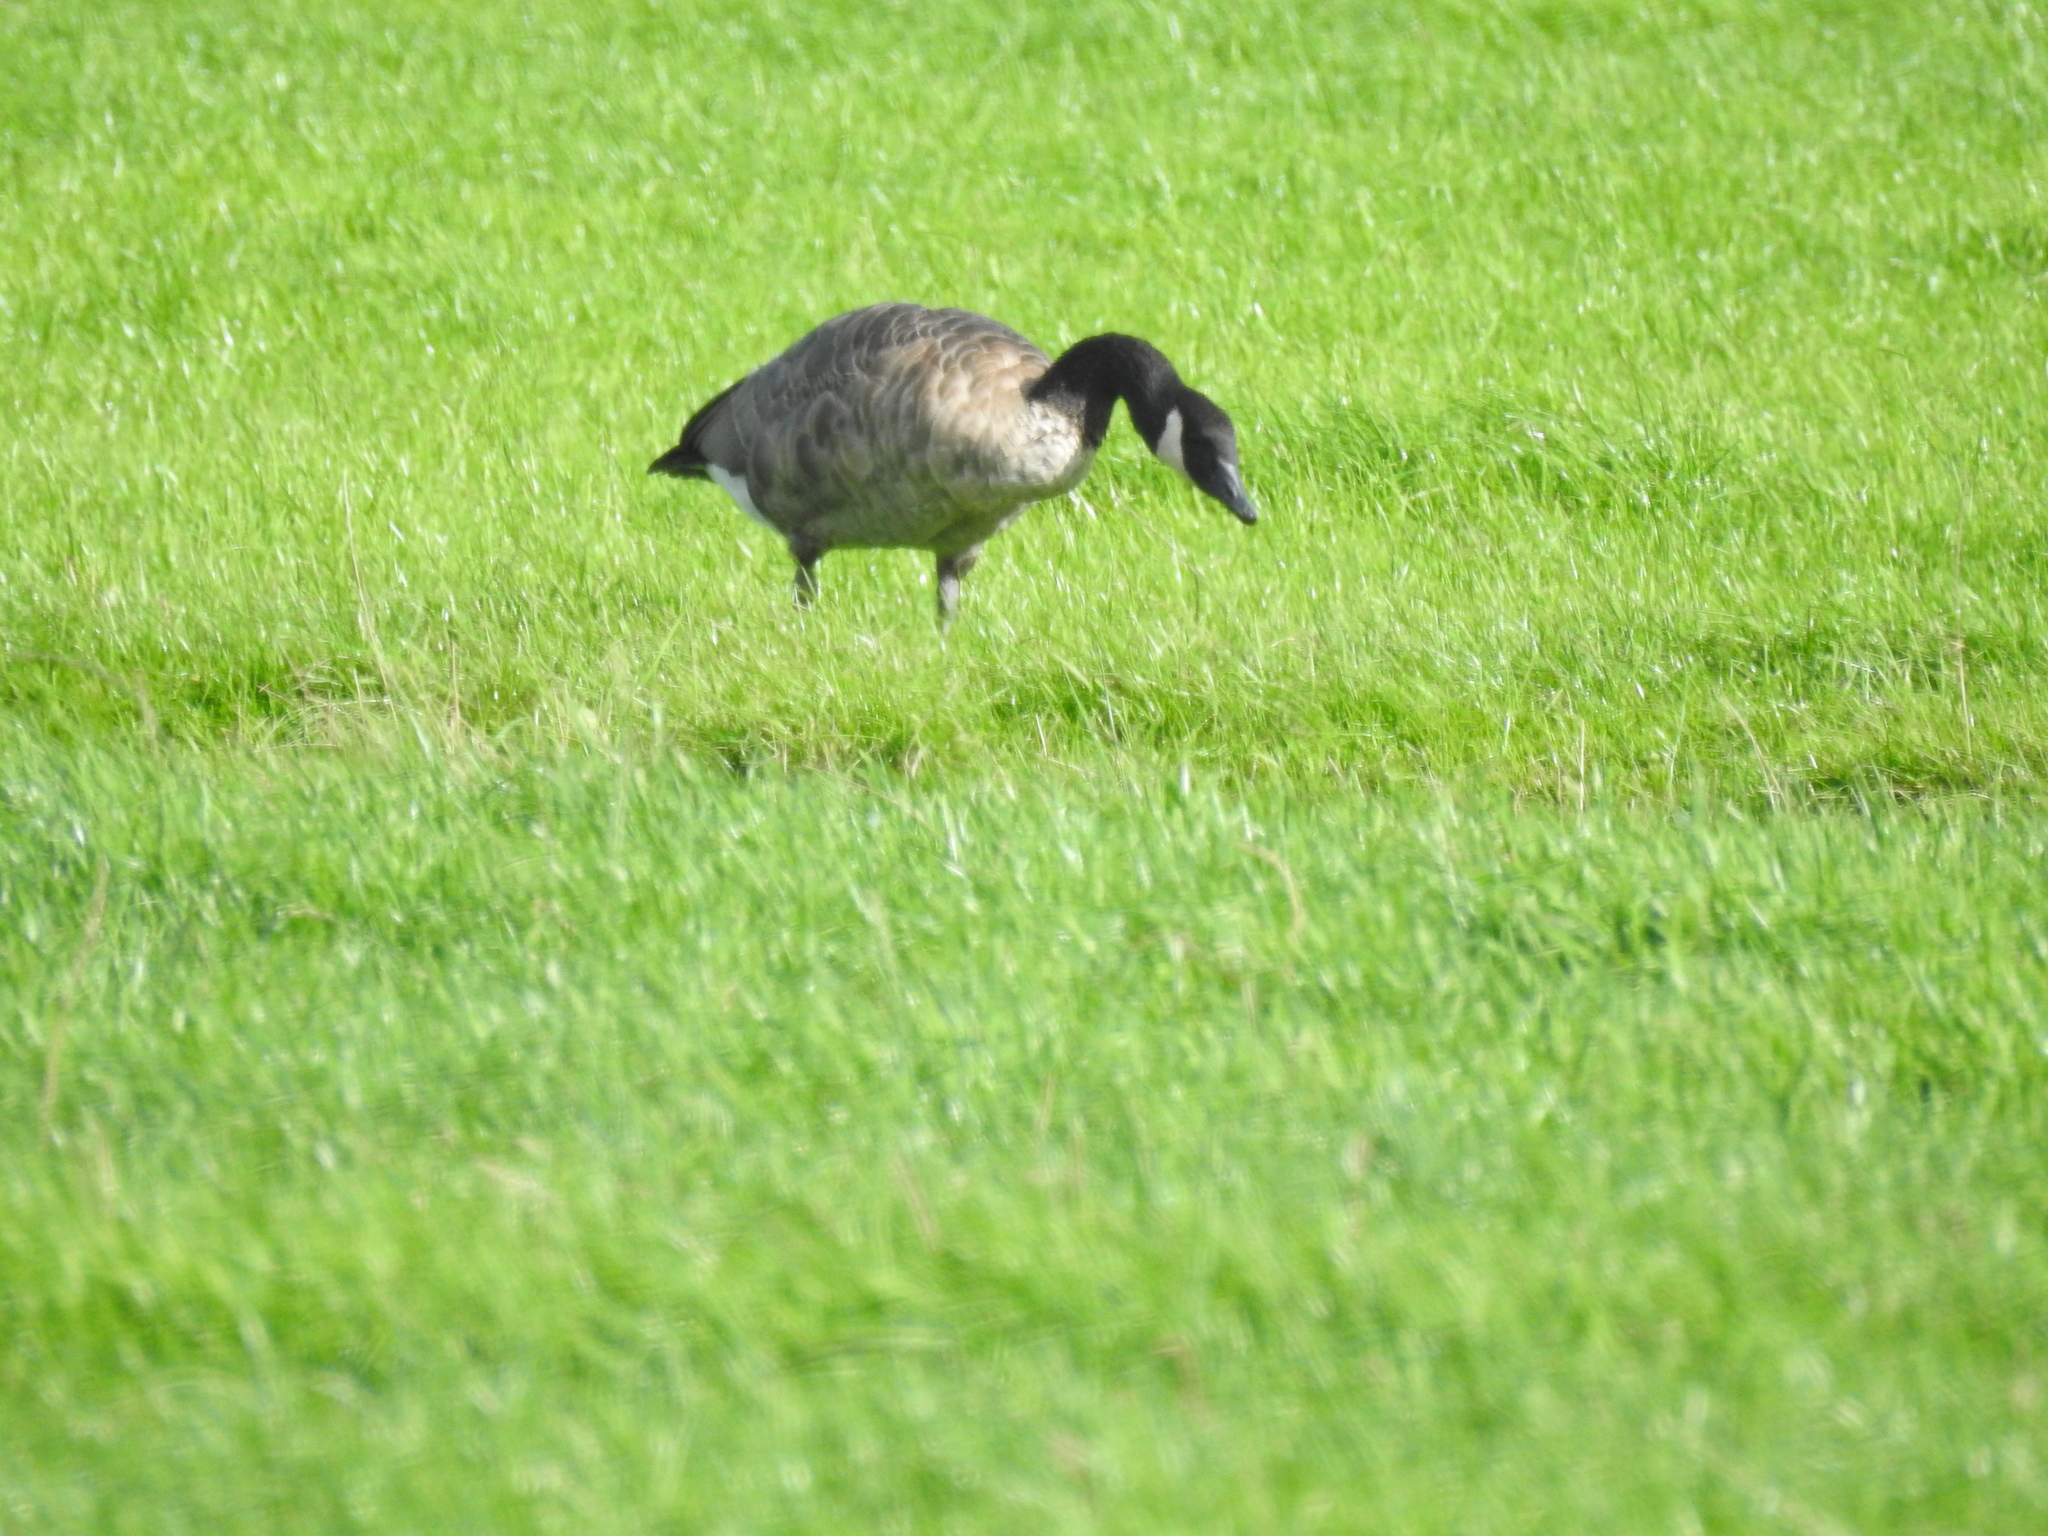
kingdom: Animalia
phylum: Chordata
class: Aves
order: Anseriformes
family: Anatidae
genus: Branta
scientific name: Branta canadensis
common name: Canada goose
